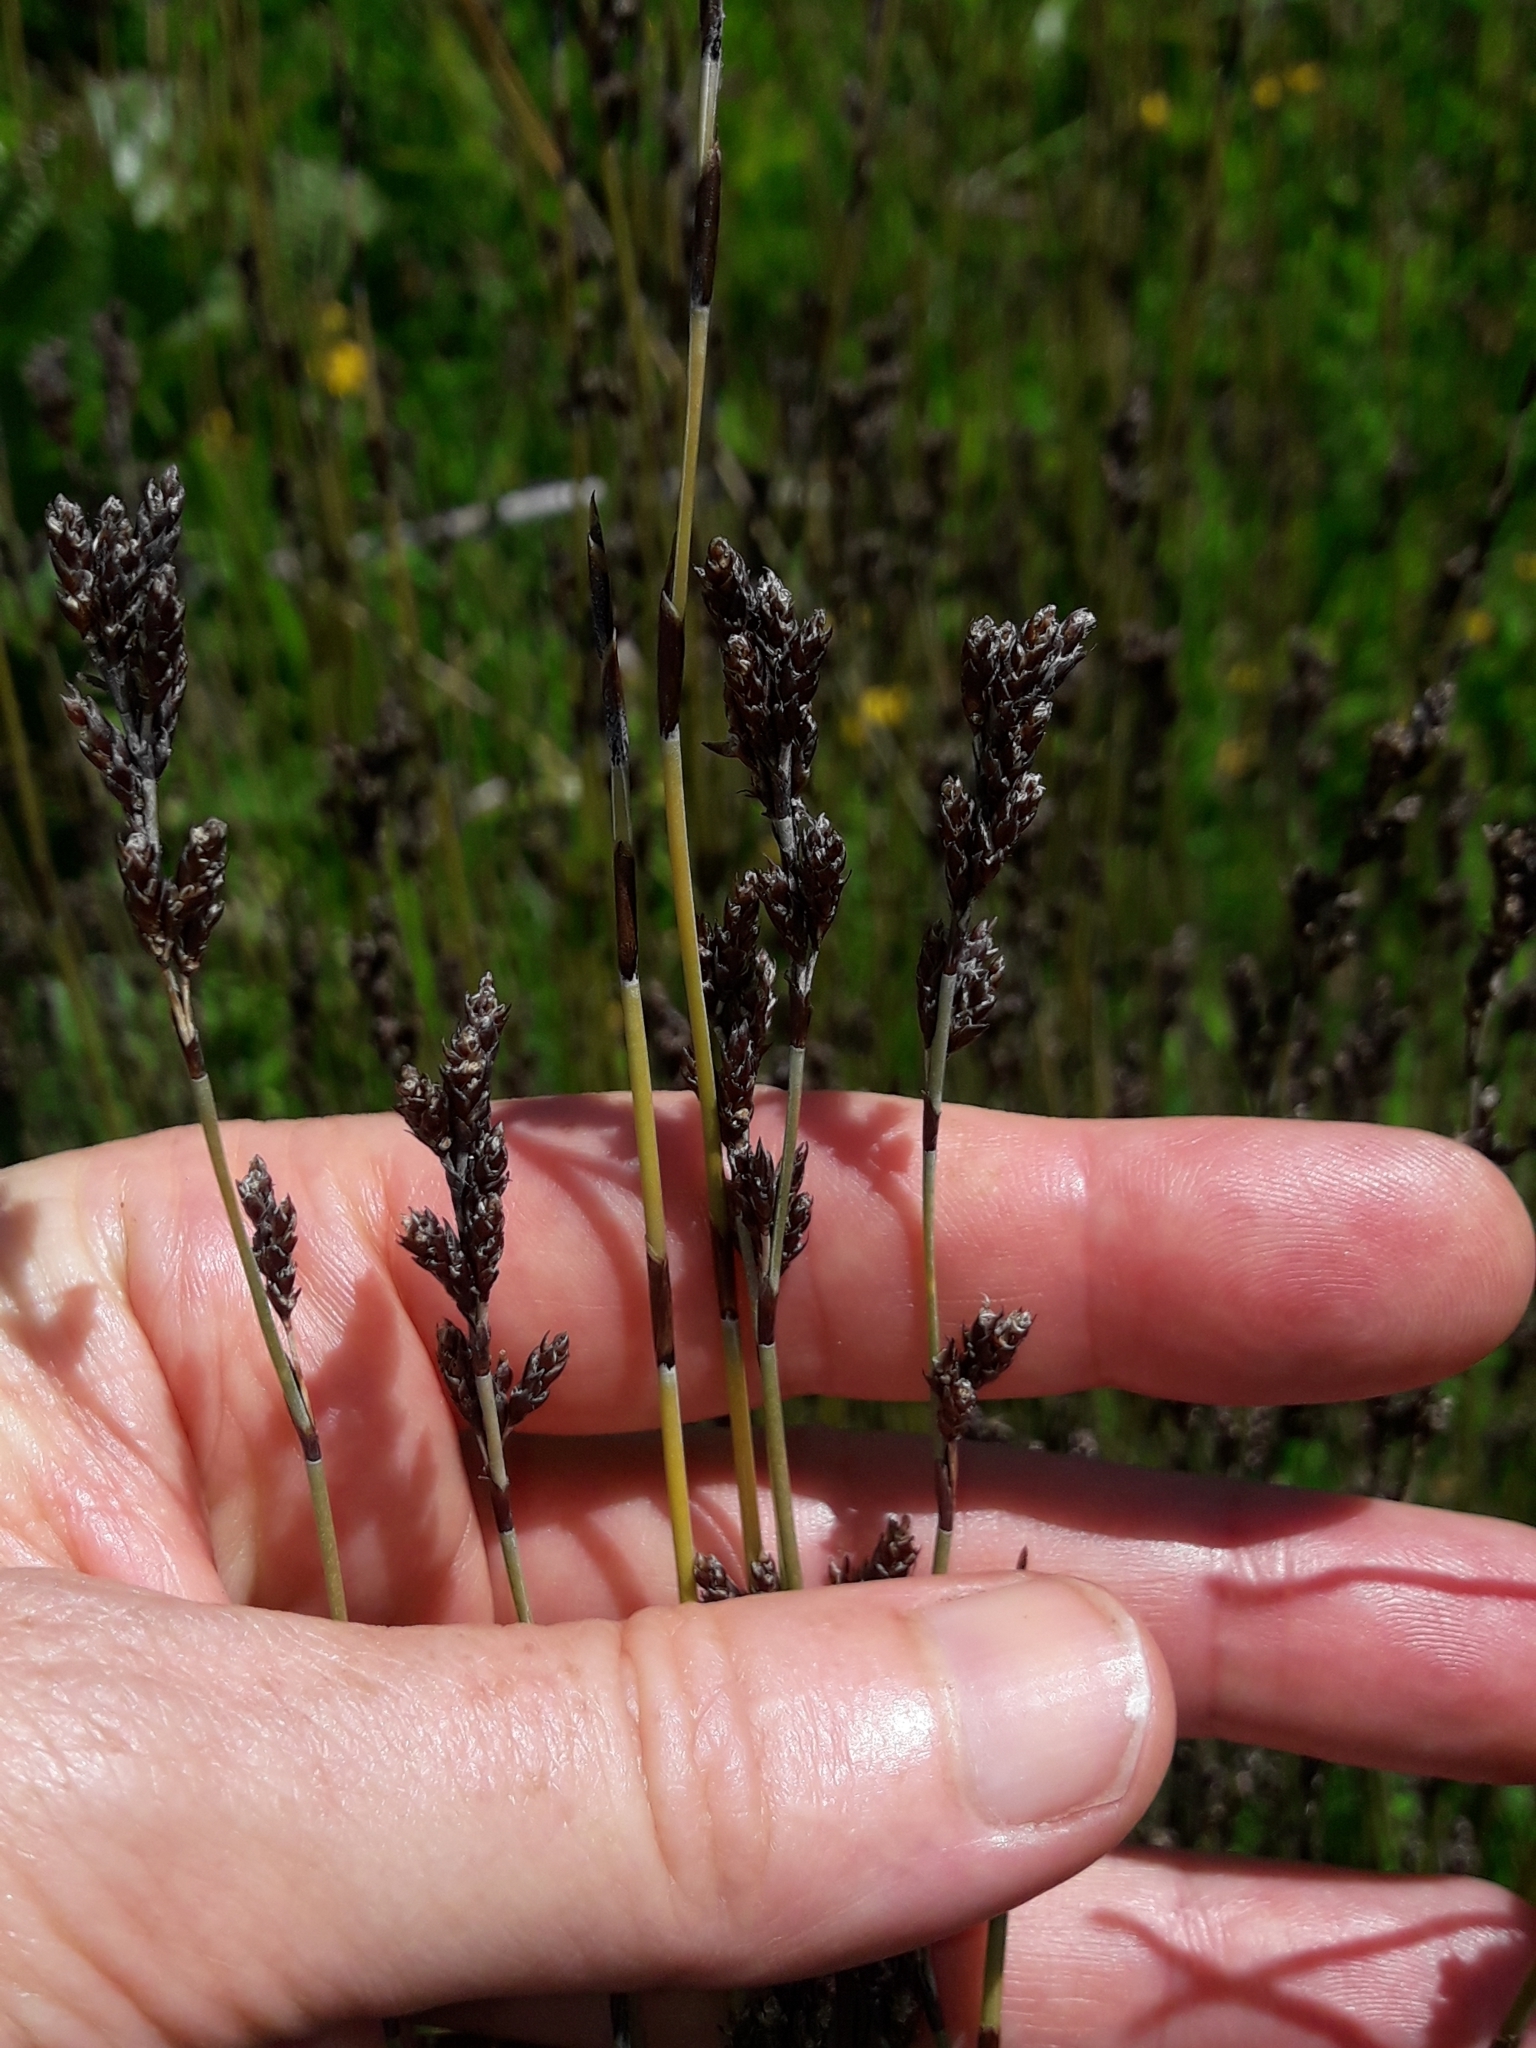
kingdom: Plantae
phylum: Tracheophyta
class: Liliopsida
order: Poales
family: Restionaceae
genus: Apodasmia
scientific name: Apodasmia similis
